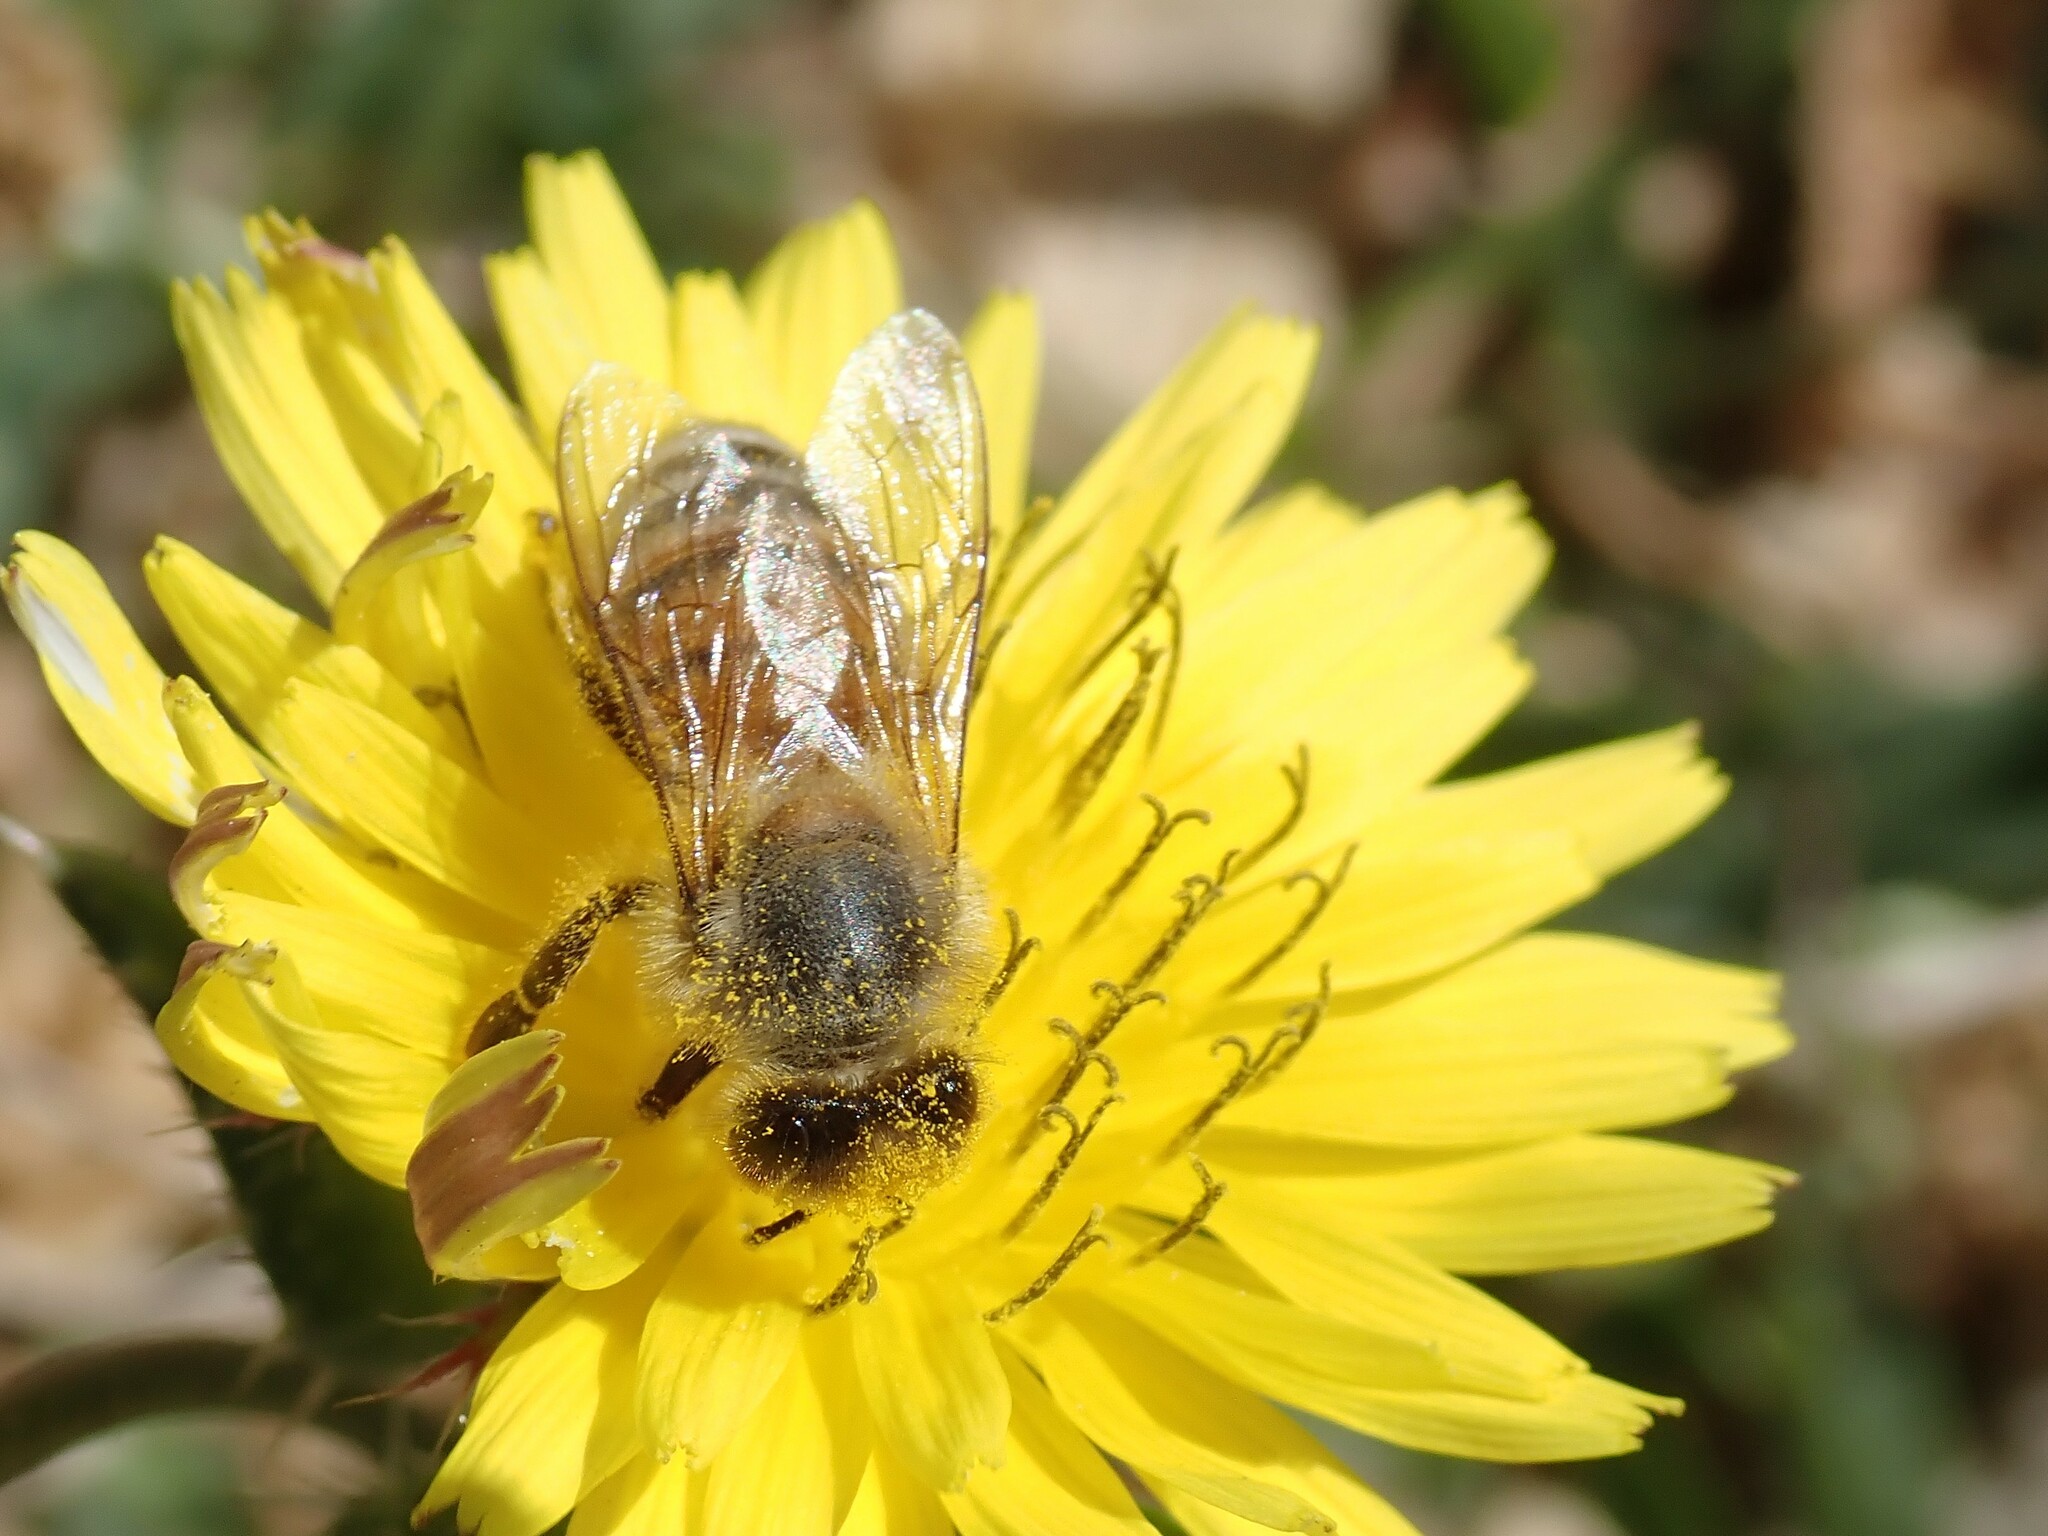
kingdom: Animalia
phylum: Arthropoda
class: Insecta
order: Hymenoptera
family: Apidae
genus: Apis
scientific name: Apis mellifera
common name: Honey bee
